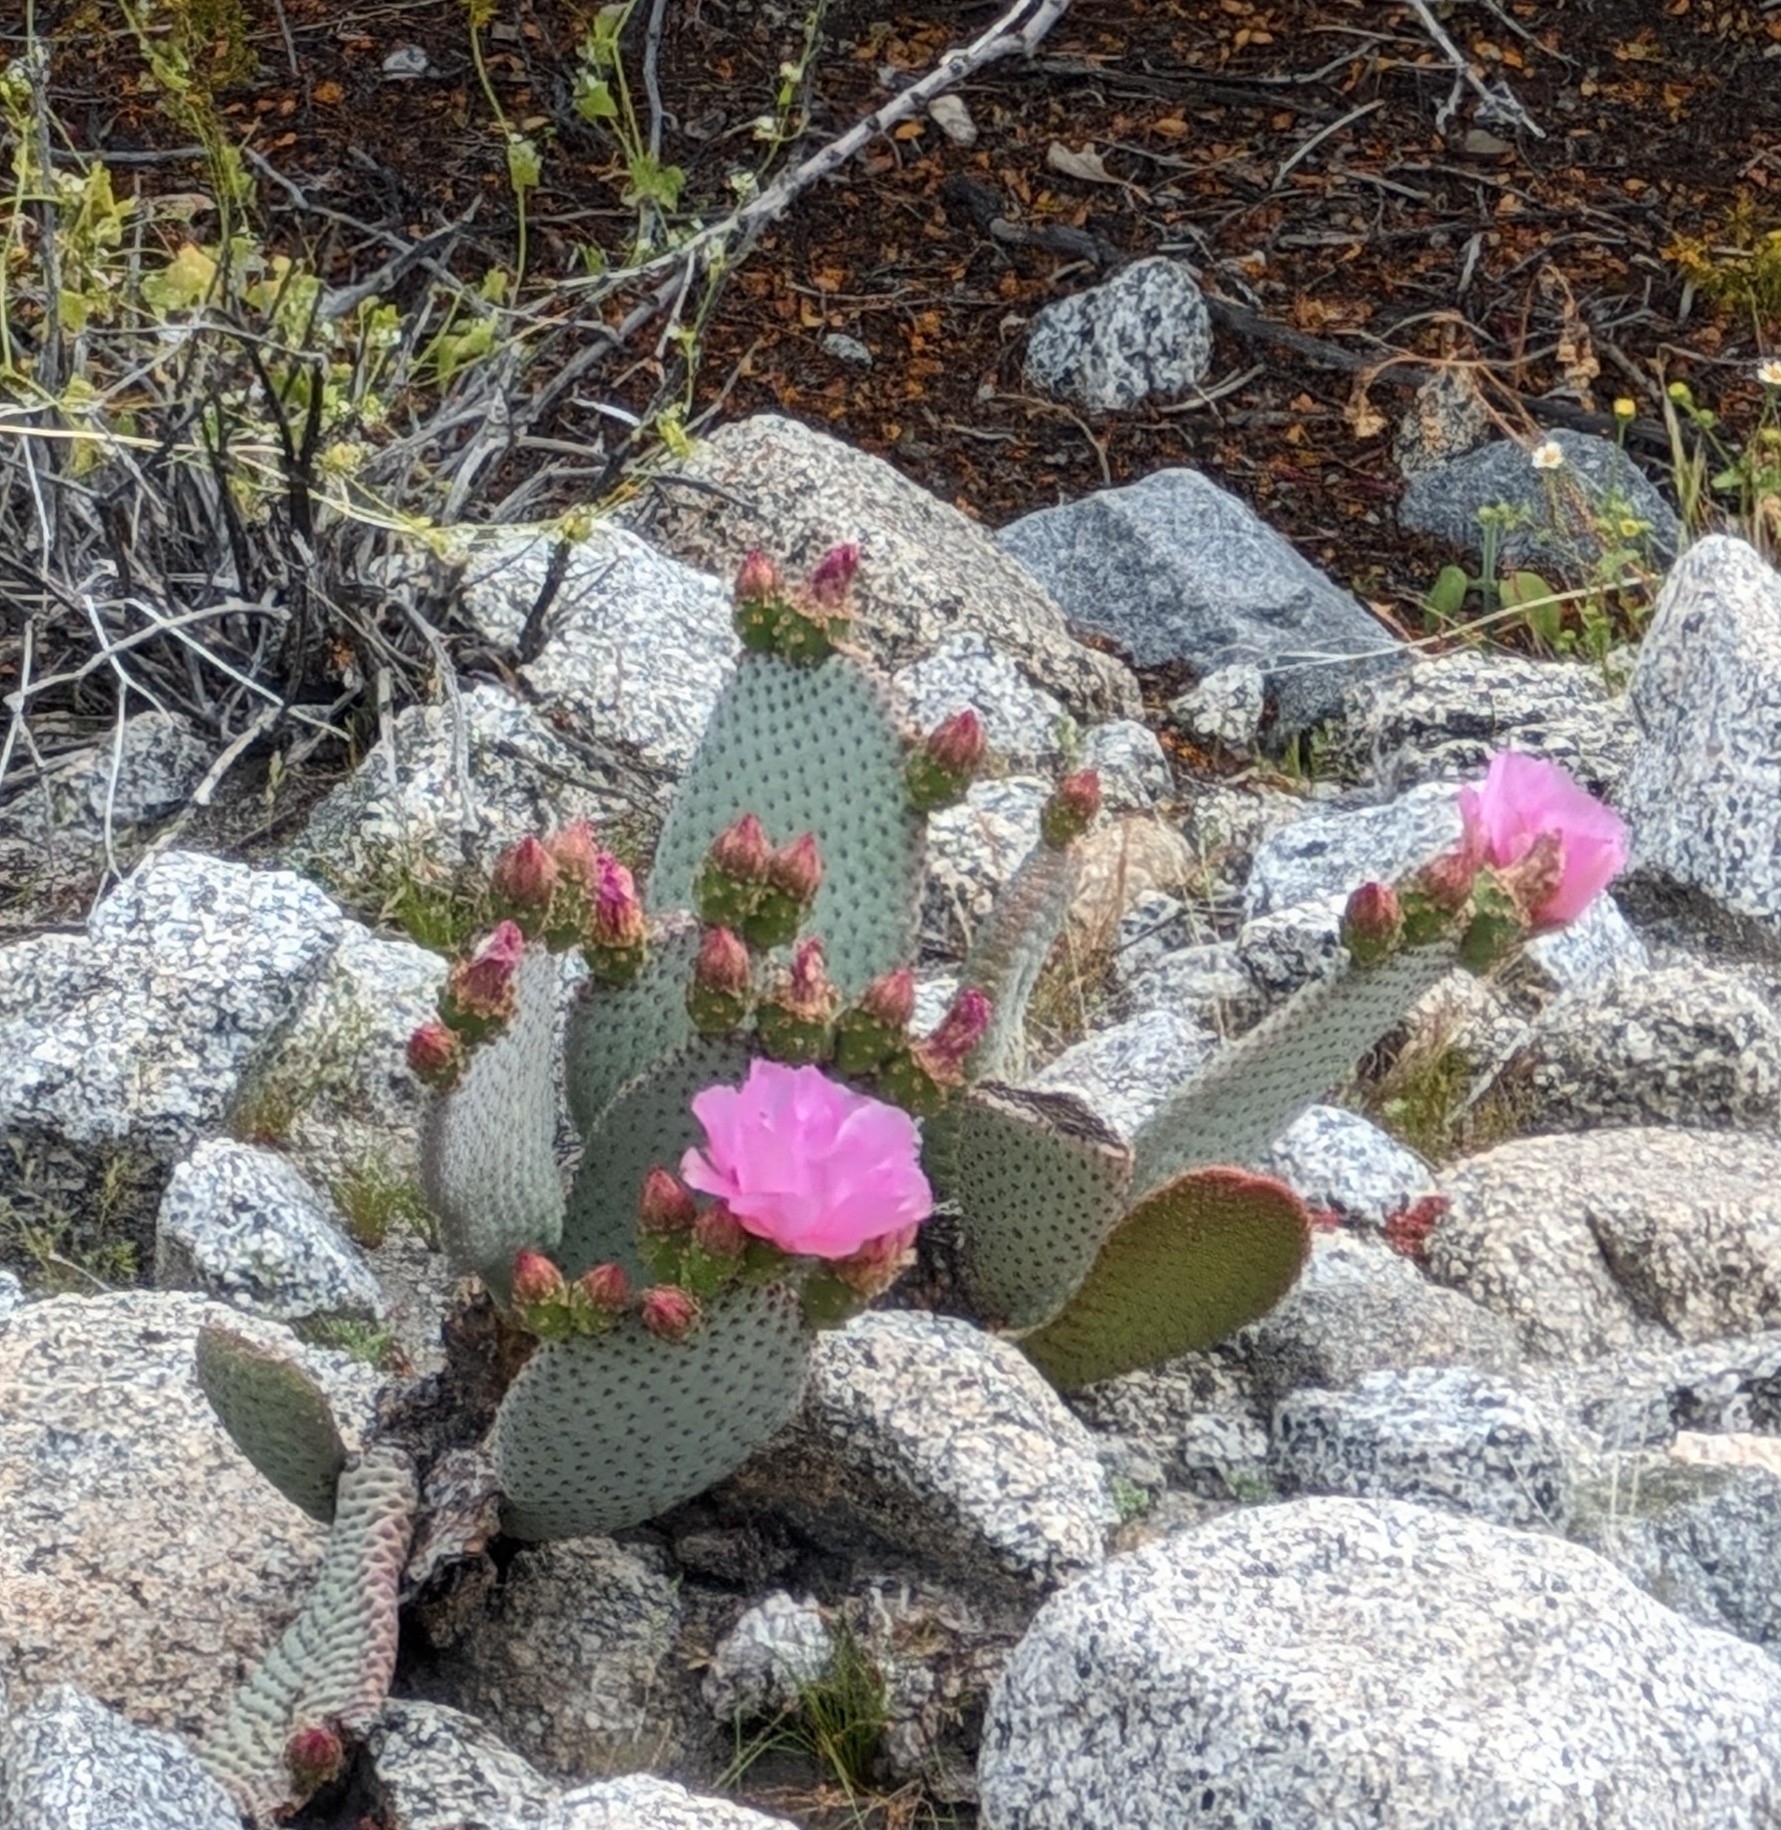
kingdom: Plantae
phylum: Tracheophyta
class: Magnoliopsida
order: Caryophyllales
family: Cactaceae
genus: Opuntia
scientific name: Opuntia basilaris
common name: Beavertail prickly-pear
